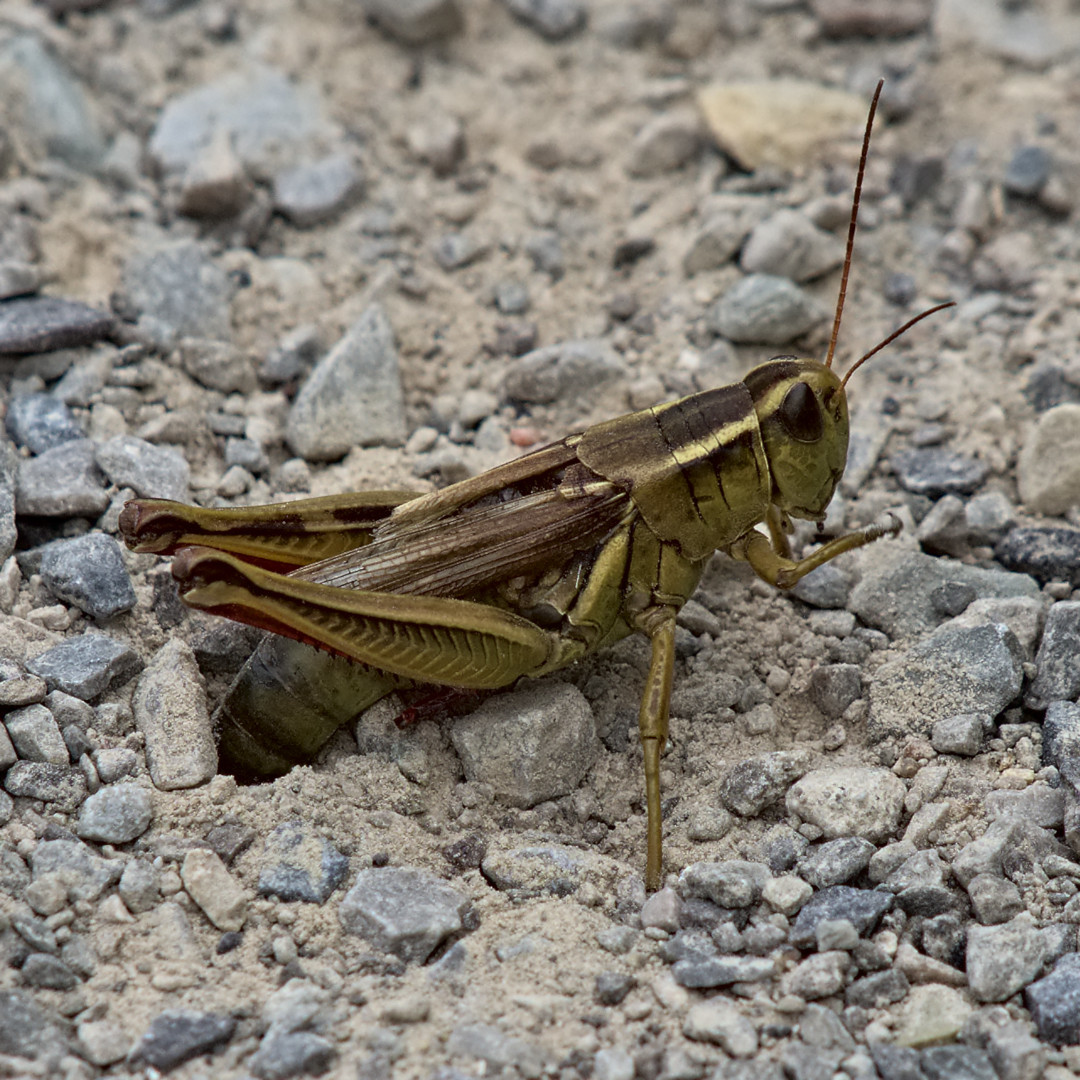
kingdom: Animalia
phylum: Arthropoda
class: Insecta
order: Orthoptera
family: Acrididae
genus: Melanoplus
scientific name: Melanoplus bivittatus
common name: Two-striped grasshopper
